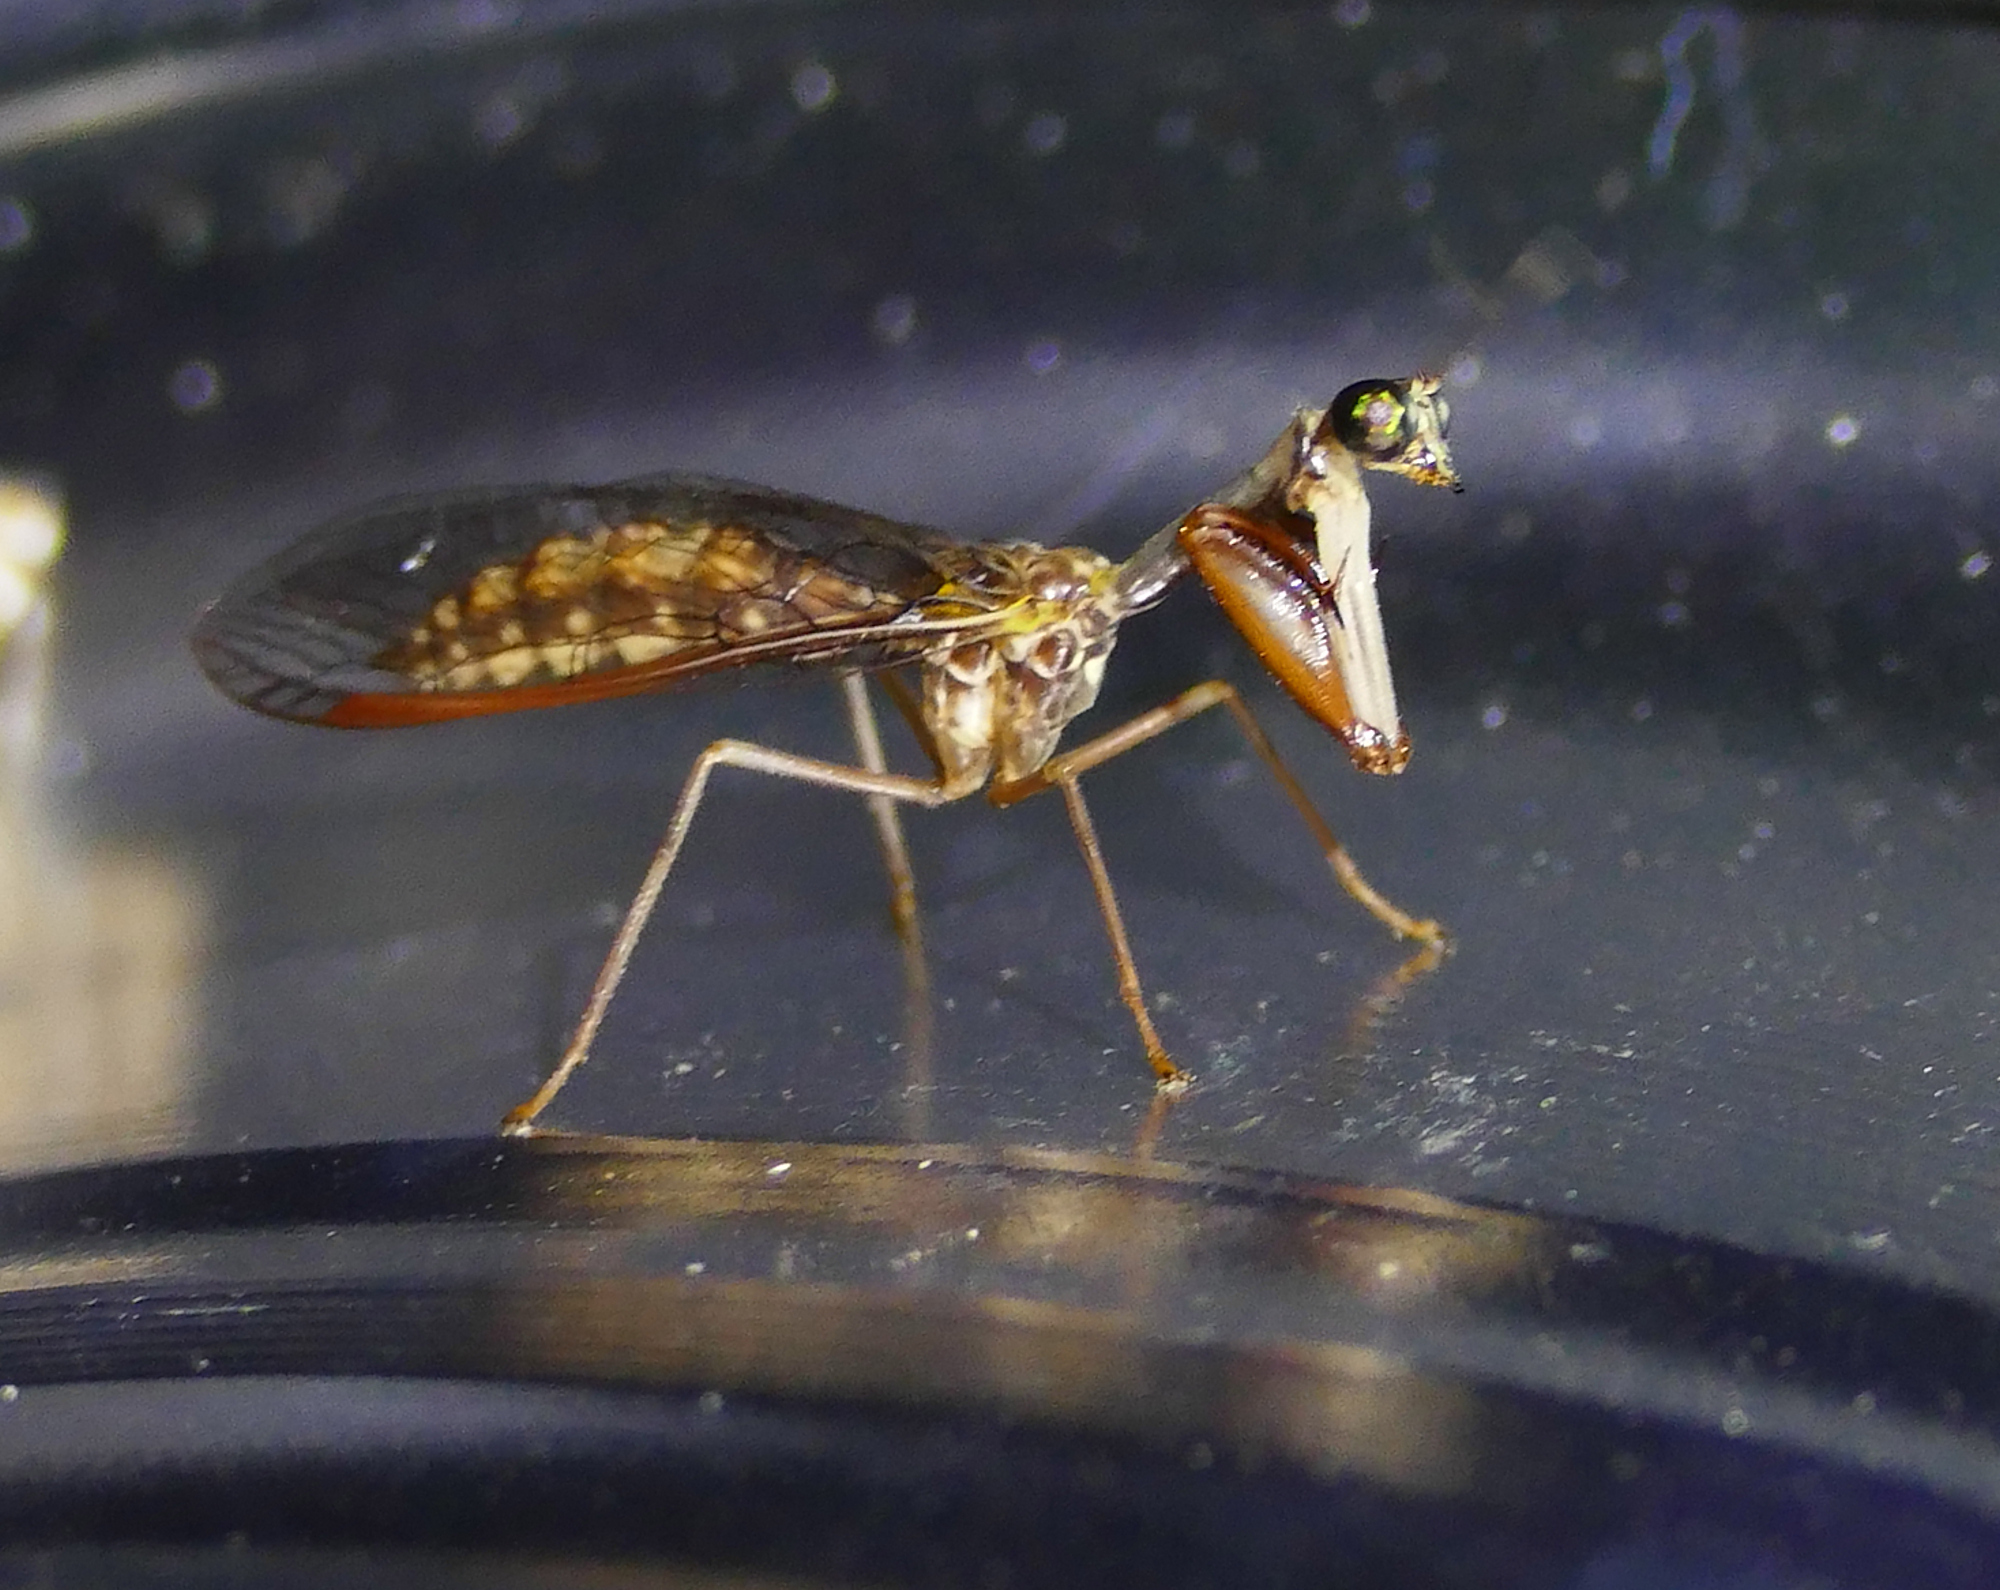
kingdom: Animalia
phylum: Arthropoda
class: Insecta
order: Neuroptera
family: Mantispidae
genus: Dicromantispa
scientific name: Dicromantispa sayi
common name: Say's mantidfly
